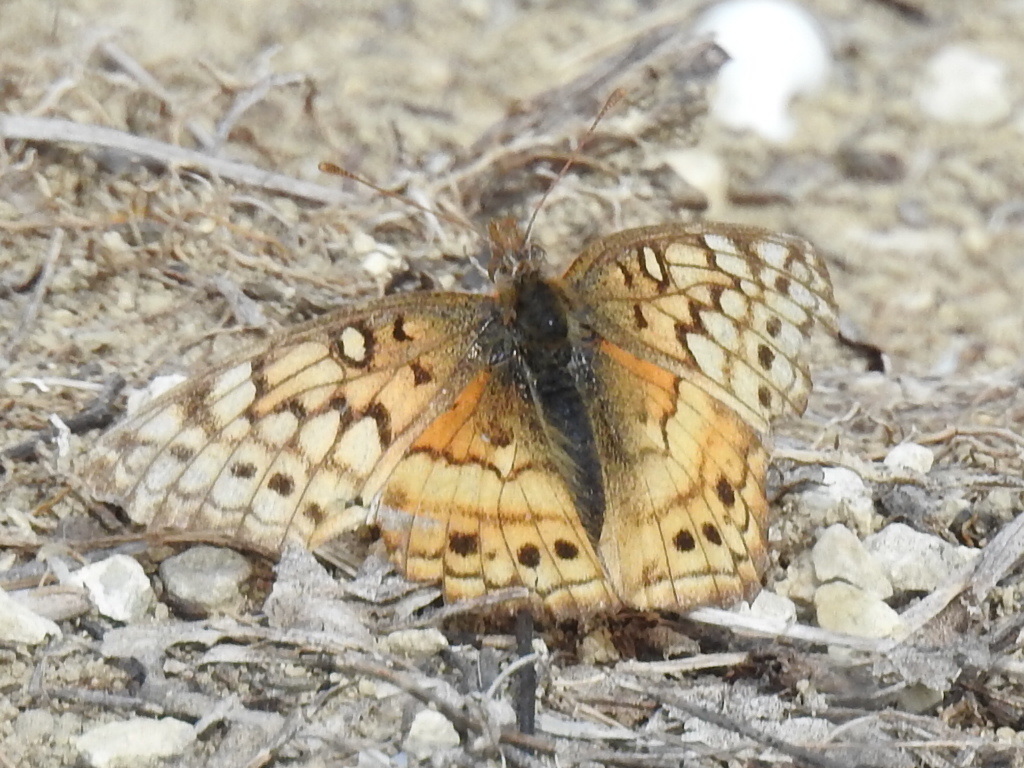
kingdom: Animalia
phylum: Arthropoda
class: Insecta
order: Lepidoptera
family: Nymphalidae
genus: Euptoieta
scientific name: Euptoieta claudia
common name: Variegated fritillary
